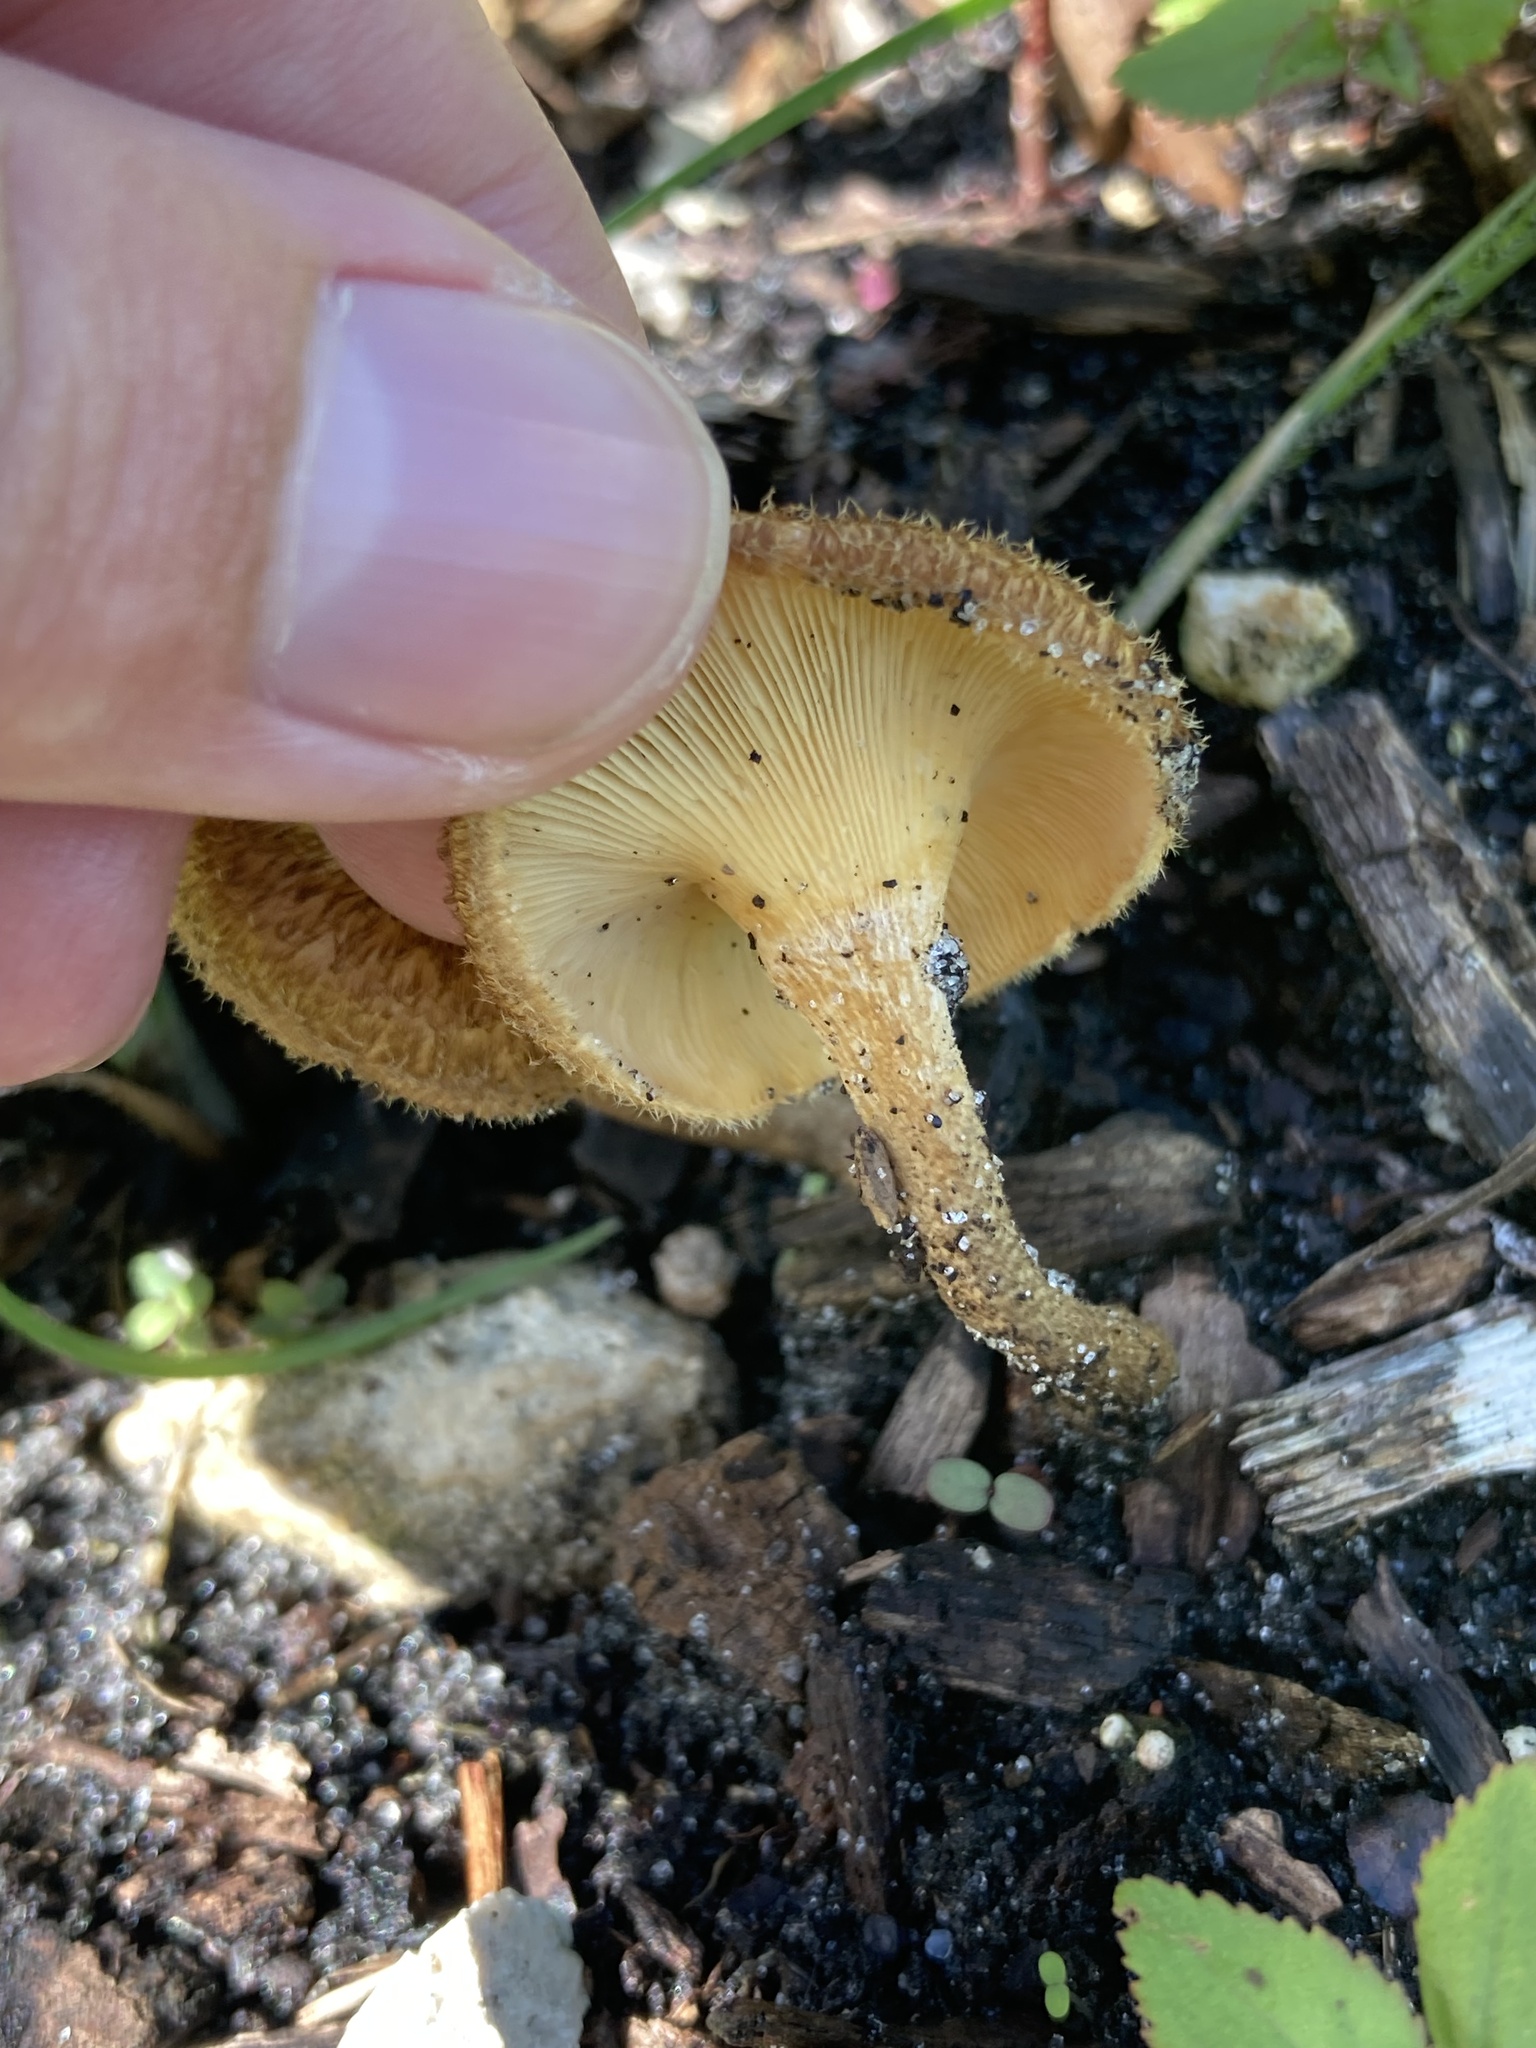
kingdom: Fungi
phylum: Basidiomycota
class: Agaricomycetes
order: Polyporales
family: Polyporaceae
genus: Lentinus
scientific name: Lentinus crinitus
